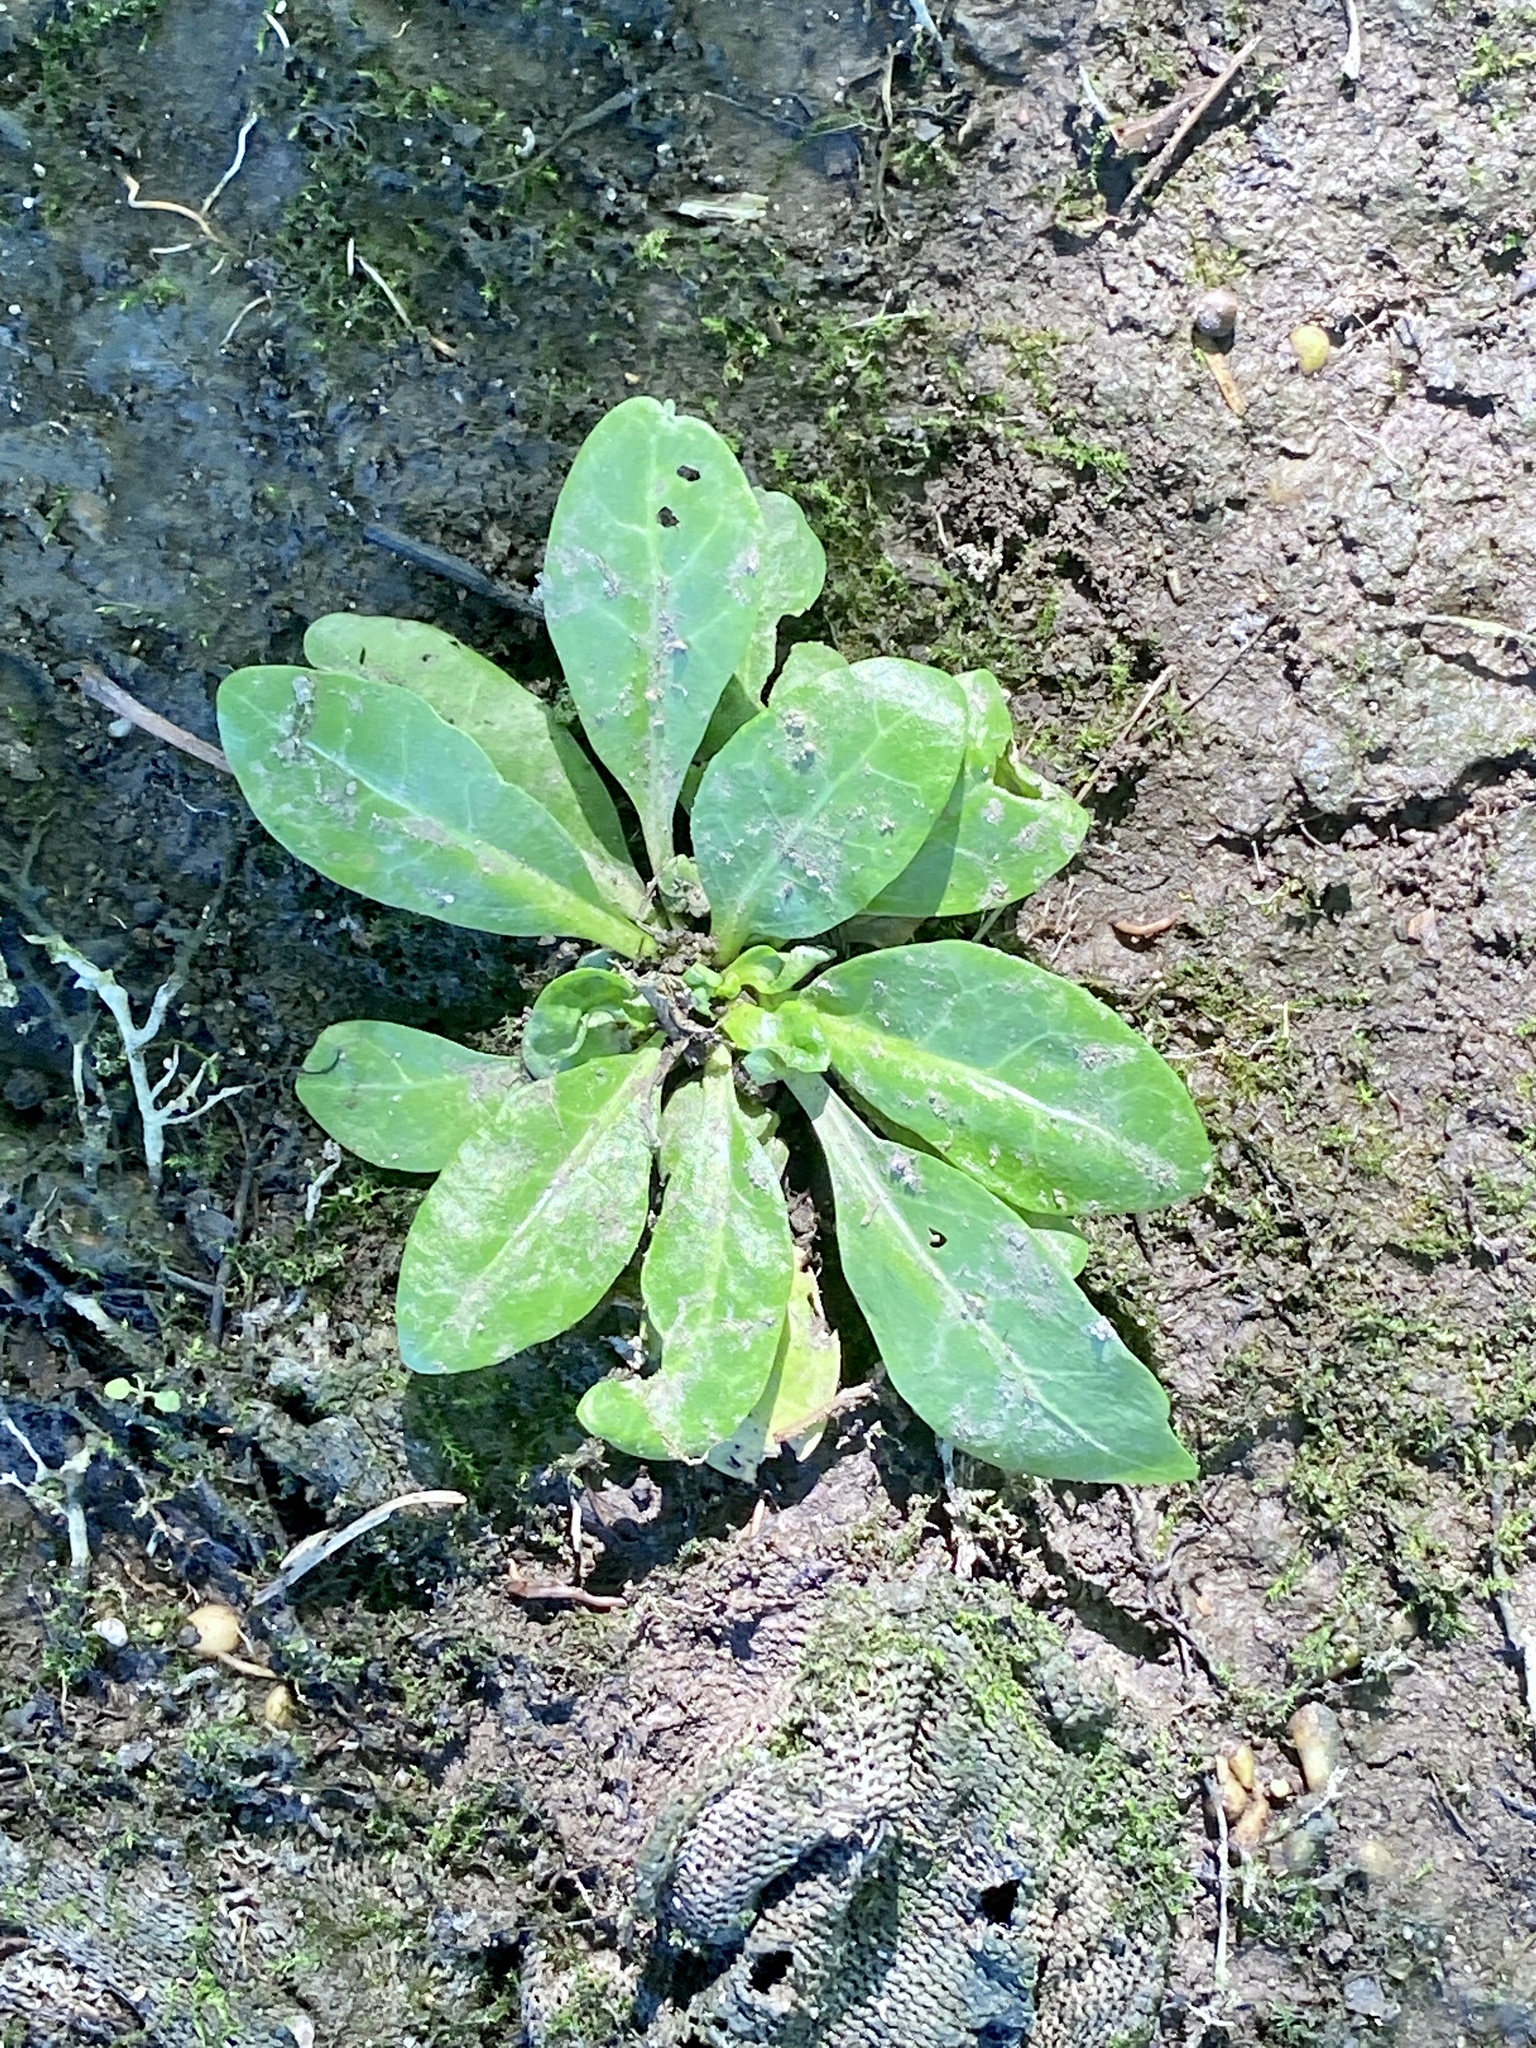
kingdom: Plantae
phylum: Tracheophyta
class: Magnoliopsida
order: Ericales
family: Primulaceae
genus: Samolus
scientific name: Samolus parviflorus
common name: False water pimpernel
